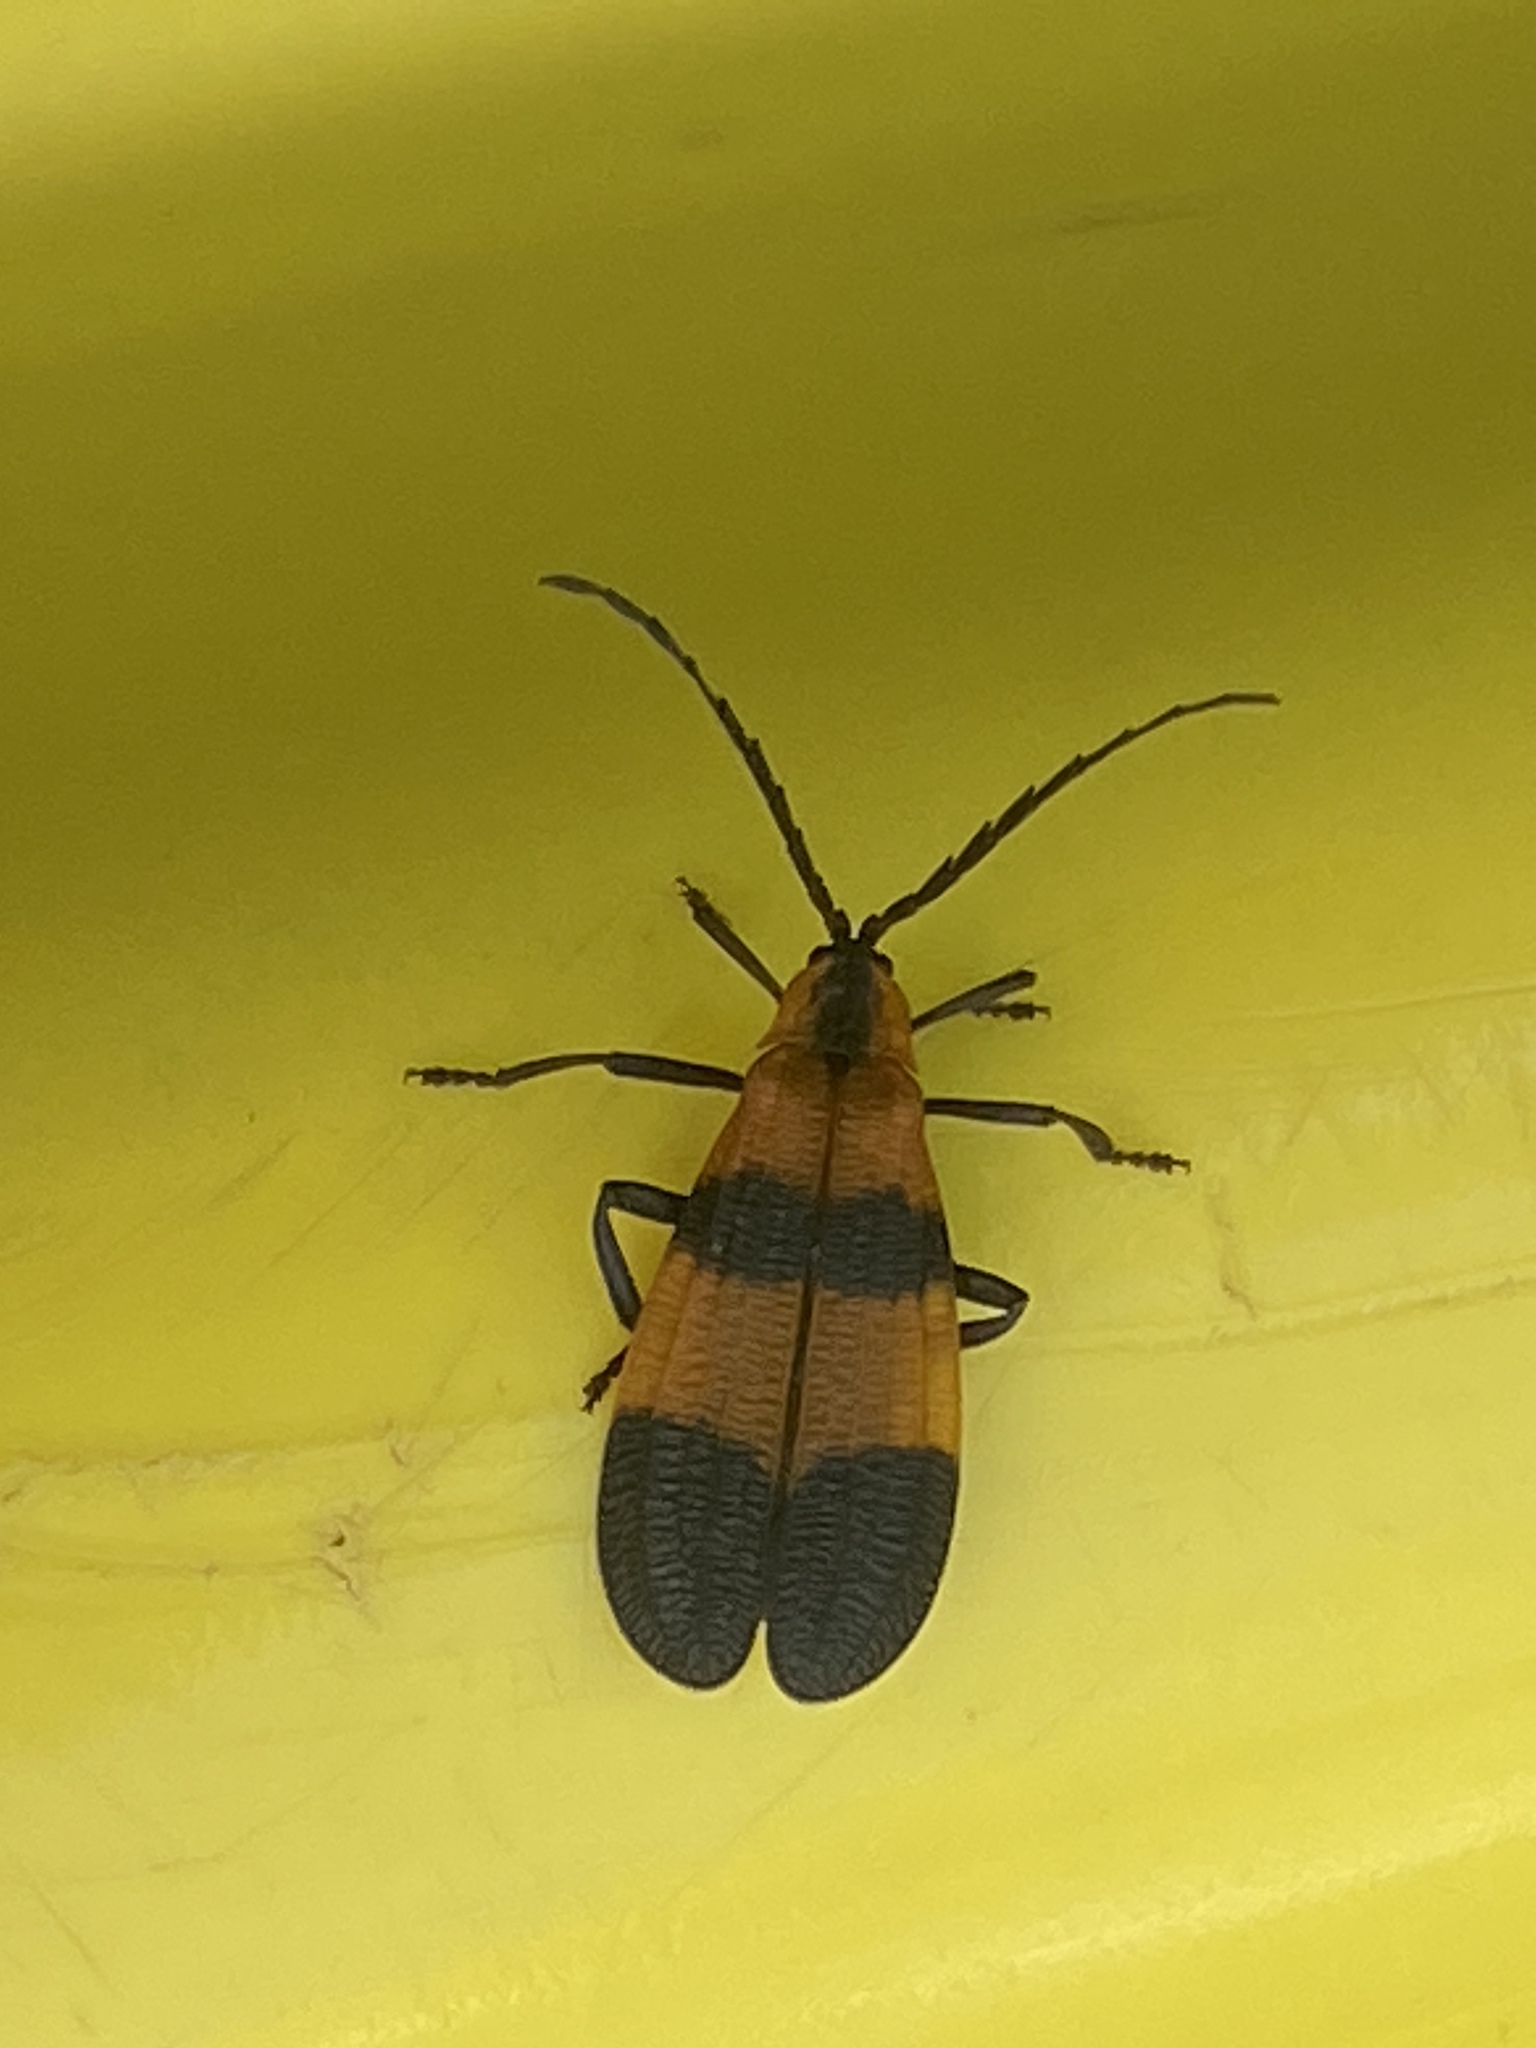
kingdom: Animalia
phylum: Arthropoda
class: Insecta
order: Coleoptera
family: Lycidae
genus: Calopteron
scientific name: Calopteron reticulatum
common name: Banded net-winged beetle
